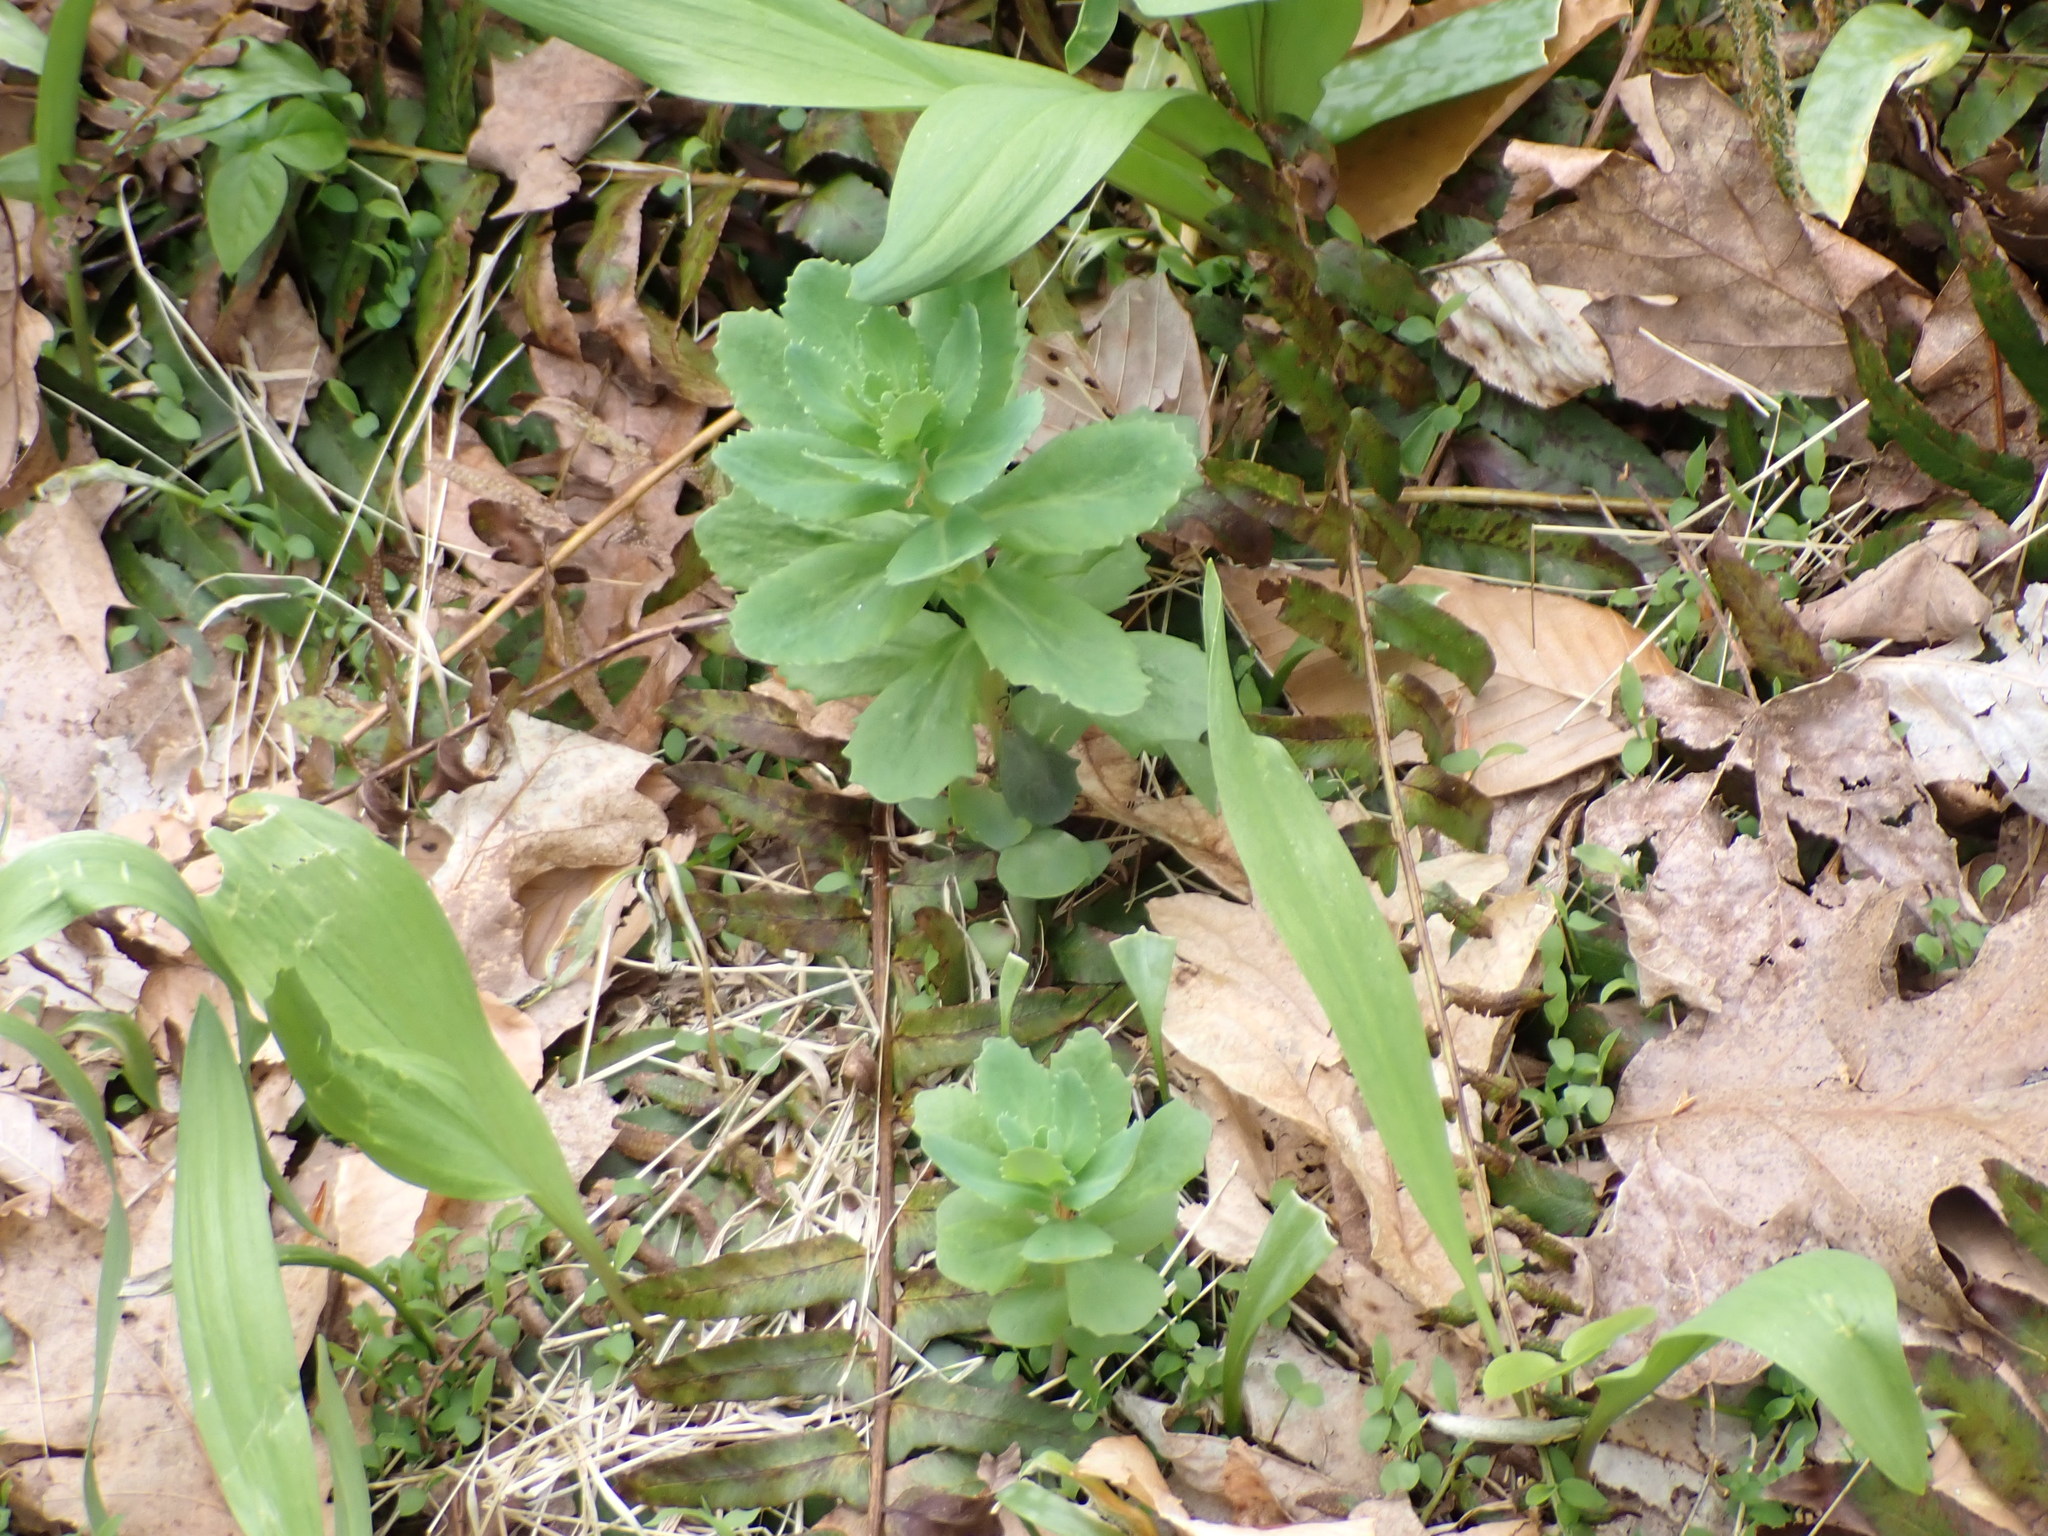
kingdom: Plantae
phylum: Tracheophyta
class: Magnoliopsida
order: Saxifragales
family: Crassulaceae
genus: Hylotelephium
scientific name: Hylotelephium telephium
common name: Live-forever
